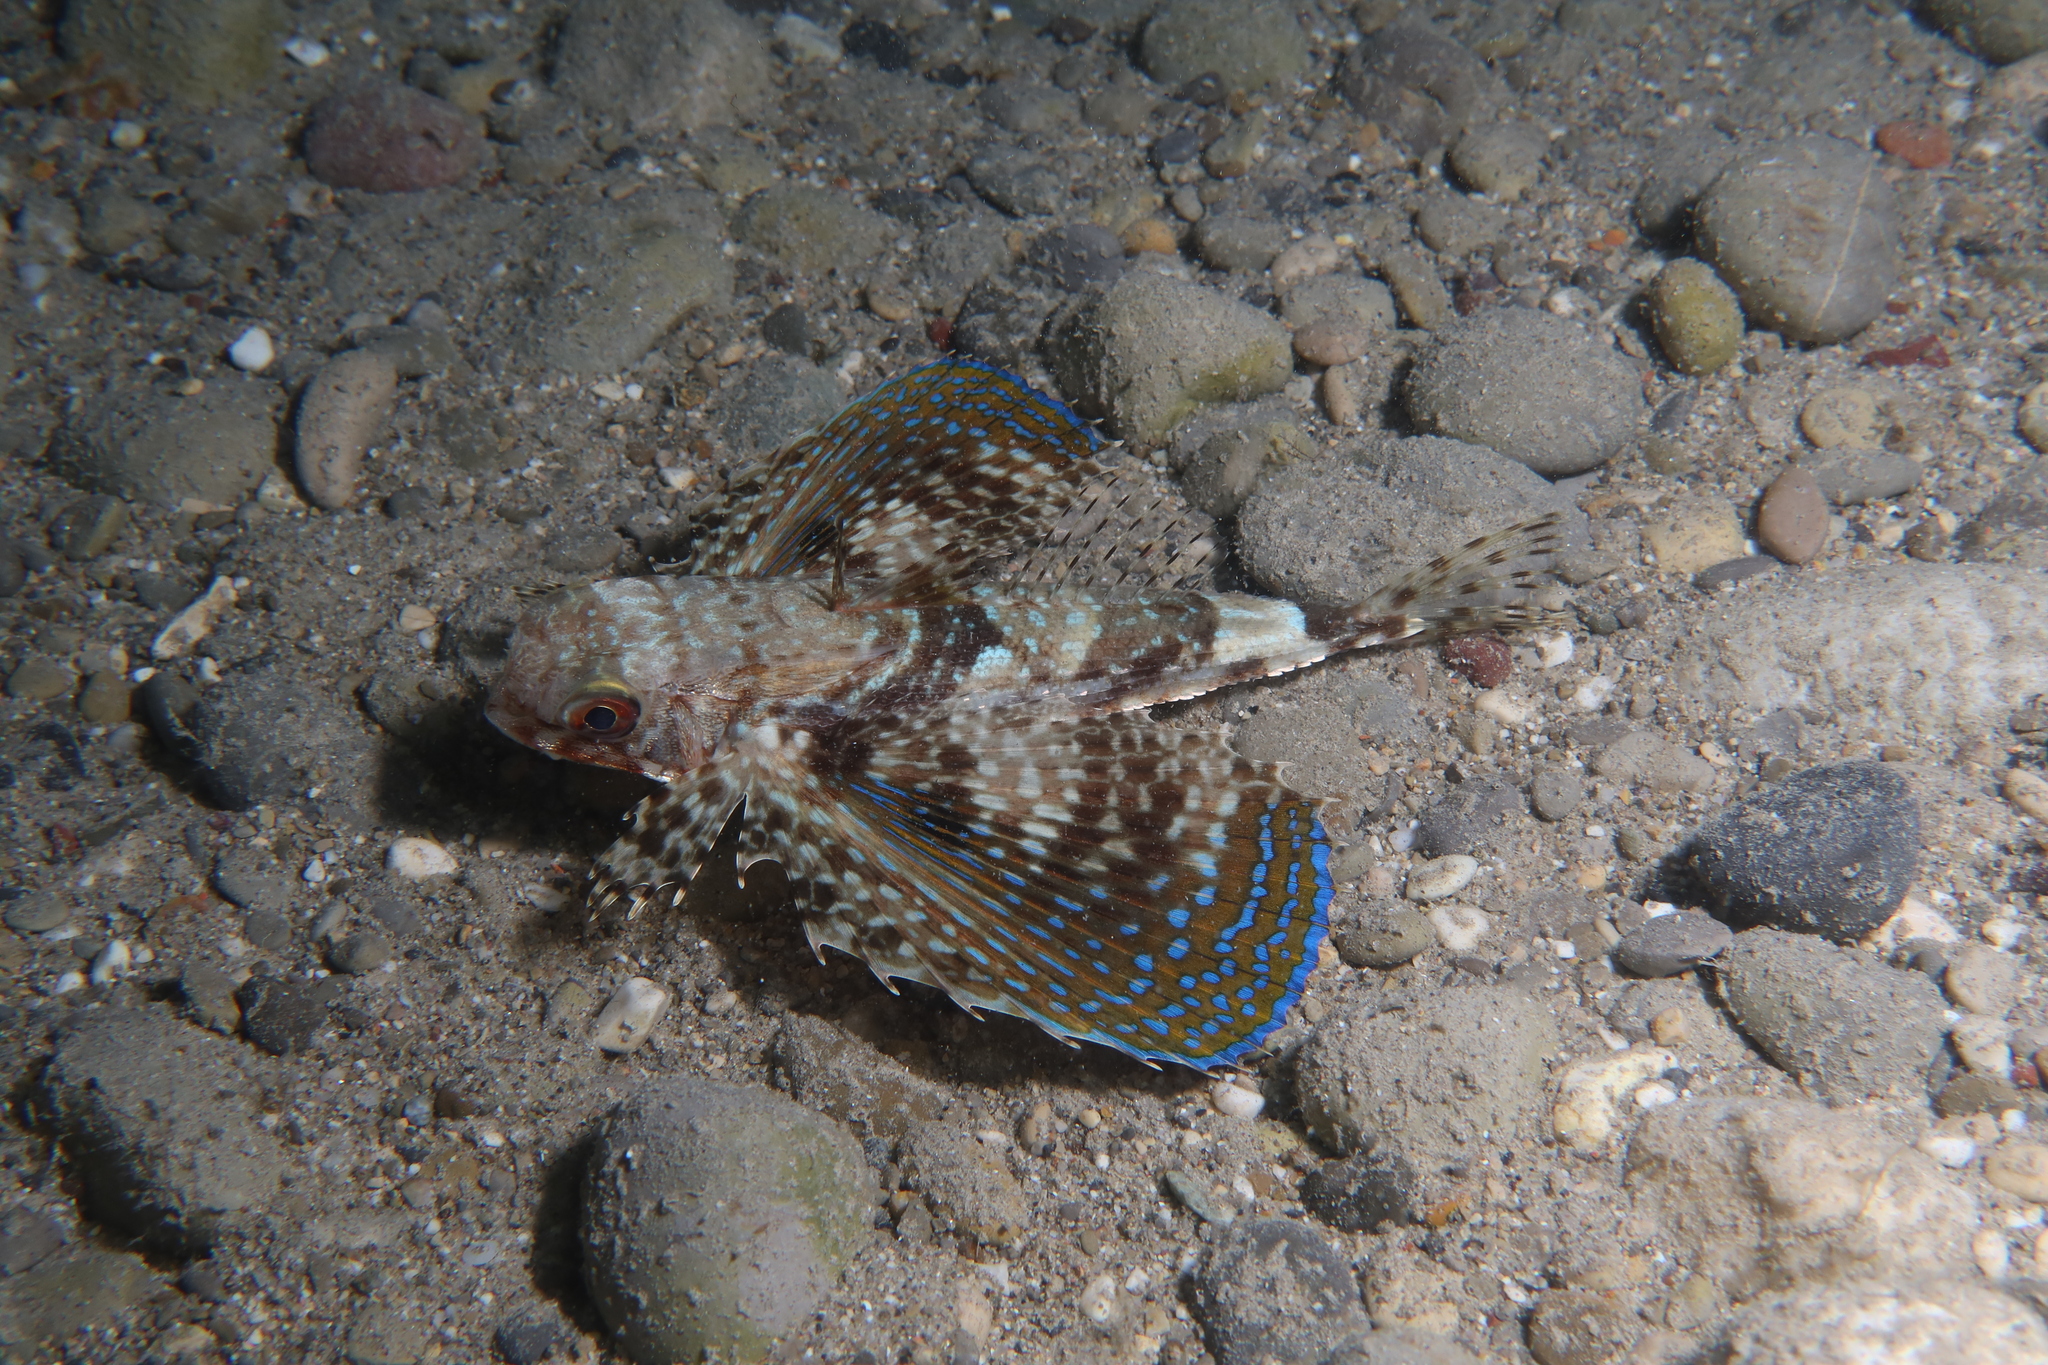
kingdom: Animalia
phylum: Chordata
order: Scorpaeniformes
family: Dactylopteridae
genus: Dactylopterus
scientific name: Dactylopterus volitans
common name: Flying gurnard
